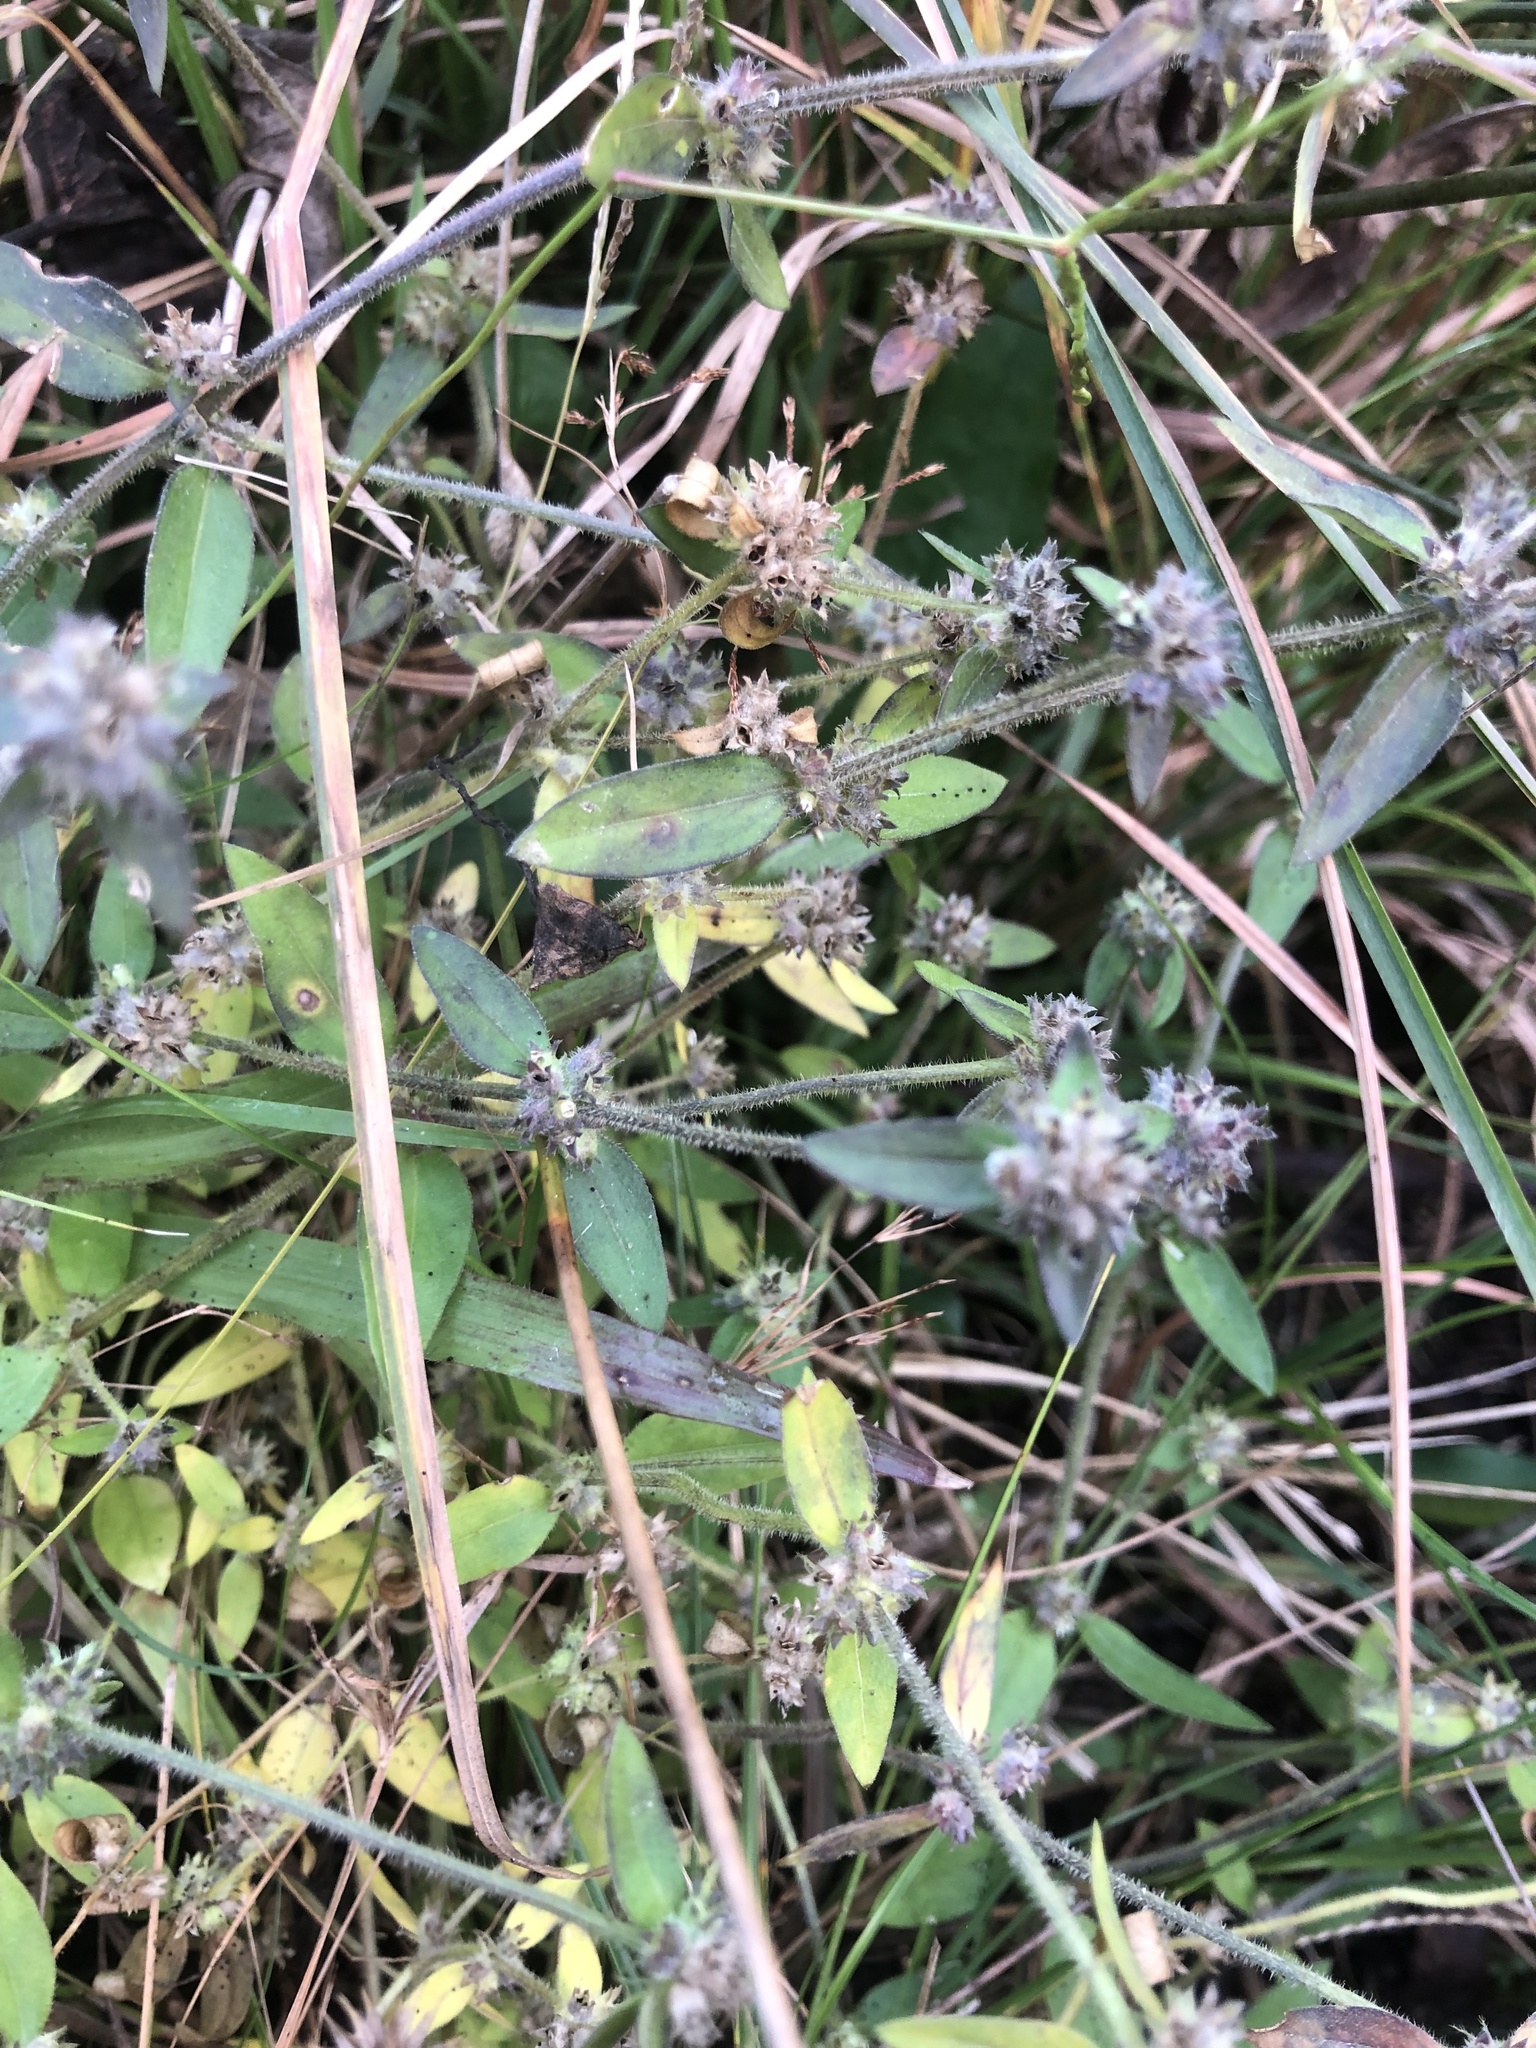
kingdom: Plantae
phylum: Tracheophyta
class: Magnoliopsida
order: Gentianales
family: Rubiaceae
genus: Edrastima
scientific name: Edrastima uniflora
